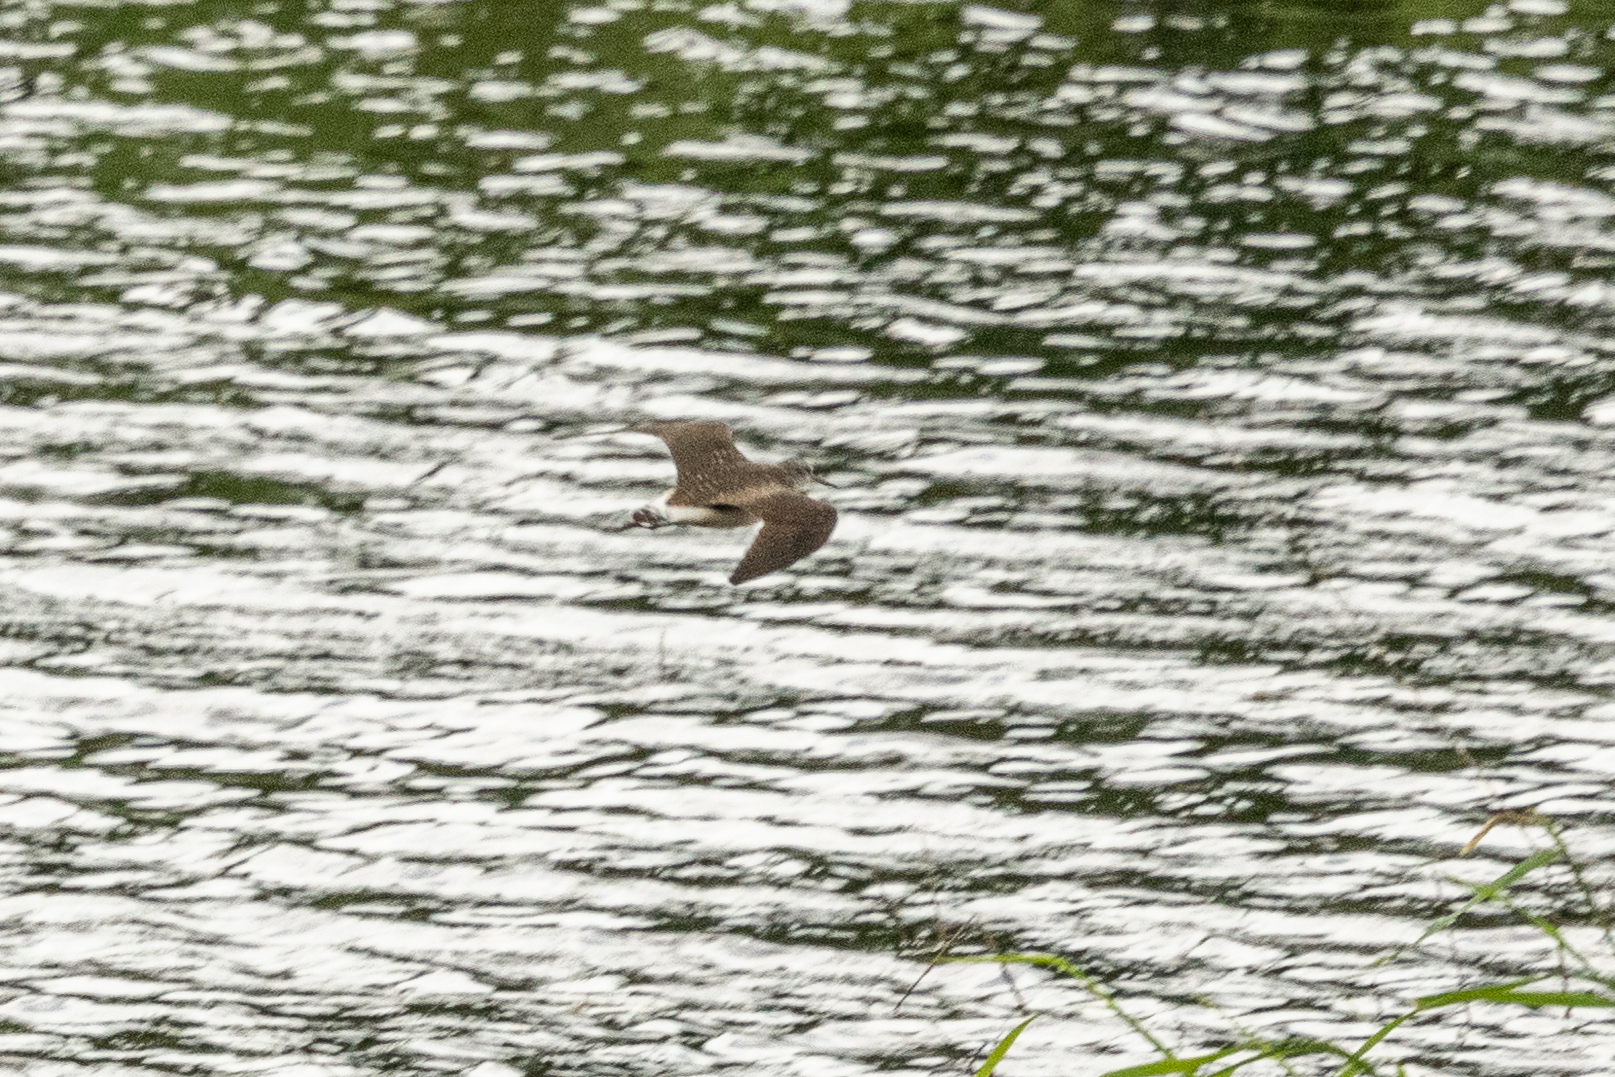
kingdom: Animalia
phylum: Chordata
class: Aves
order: Charadriiformes
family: Scolopacidae
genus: Tringa
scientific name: Tringa ochropus
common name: Green sandpiper
